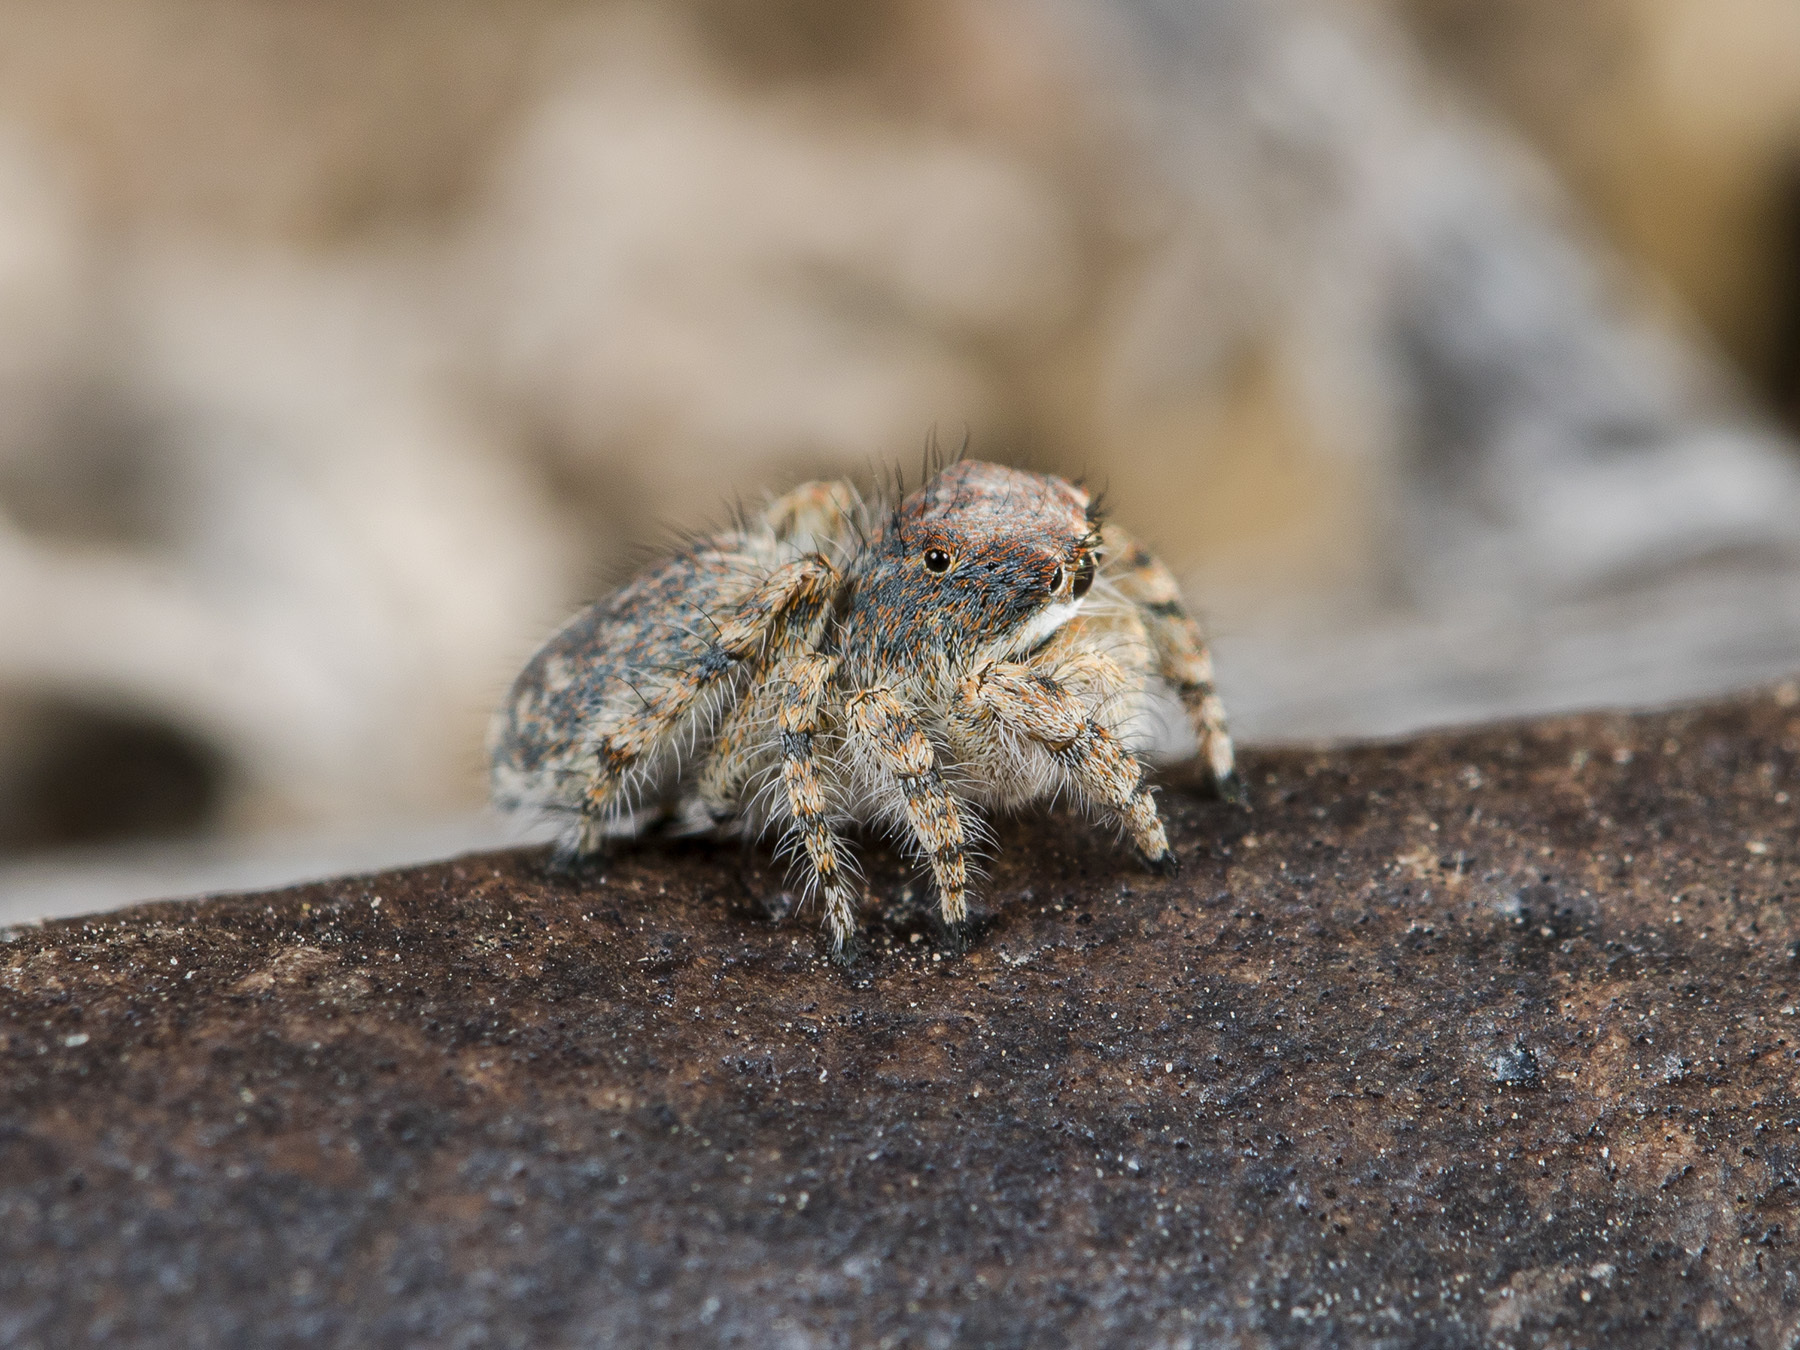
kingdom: Animalia
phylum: Arthropoda
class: Arachnida
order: Araneae
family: Salticidae
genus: Yllenus
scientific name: Yllenus zyuzini
